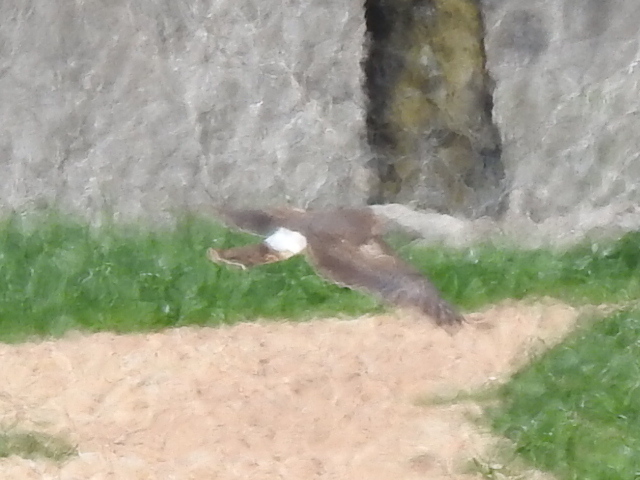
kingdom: Animalia
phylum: Chordata
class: Aves
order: Accipitriformes
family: Accipitridae
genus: Circus
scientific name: Circus cyaneus
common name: Hen harrier
